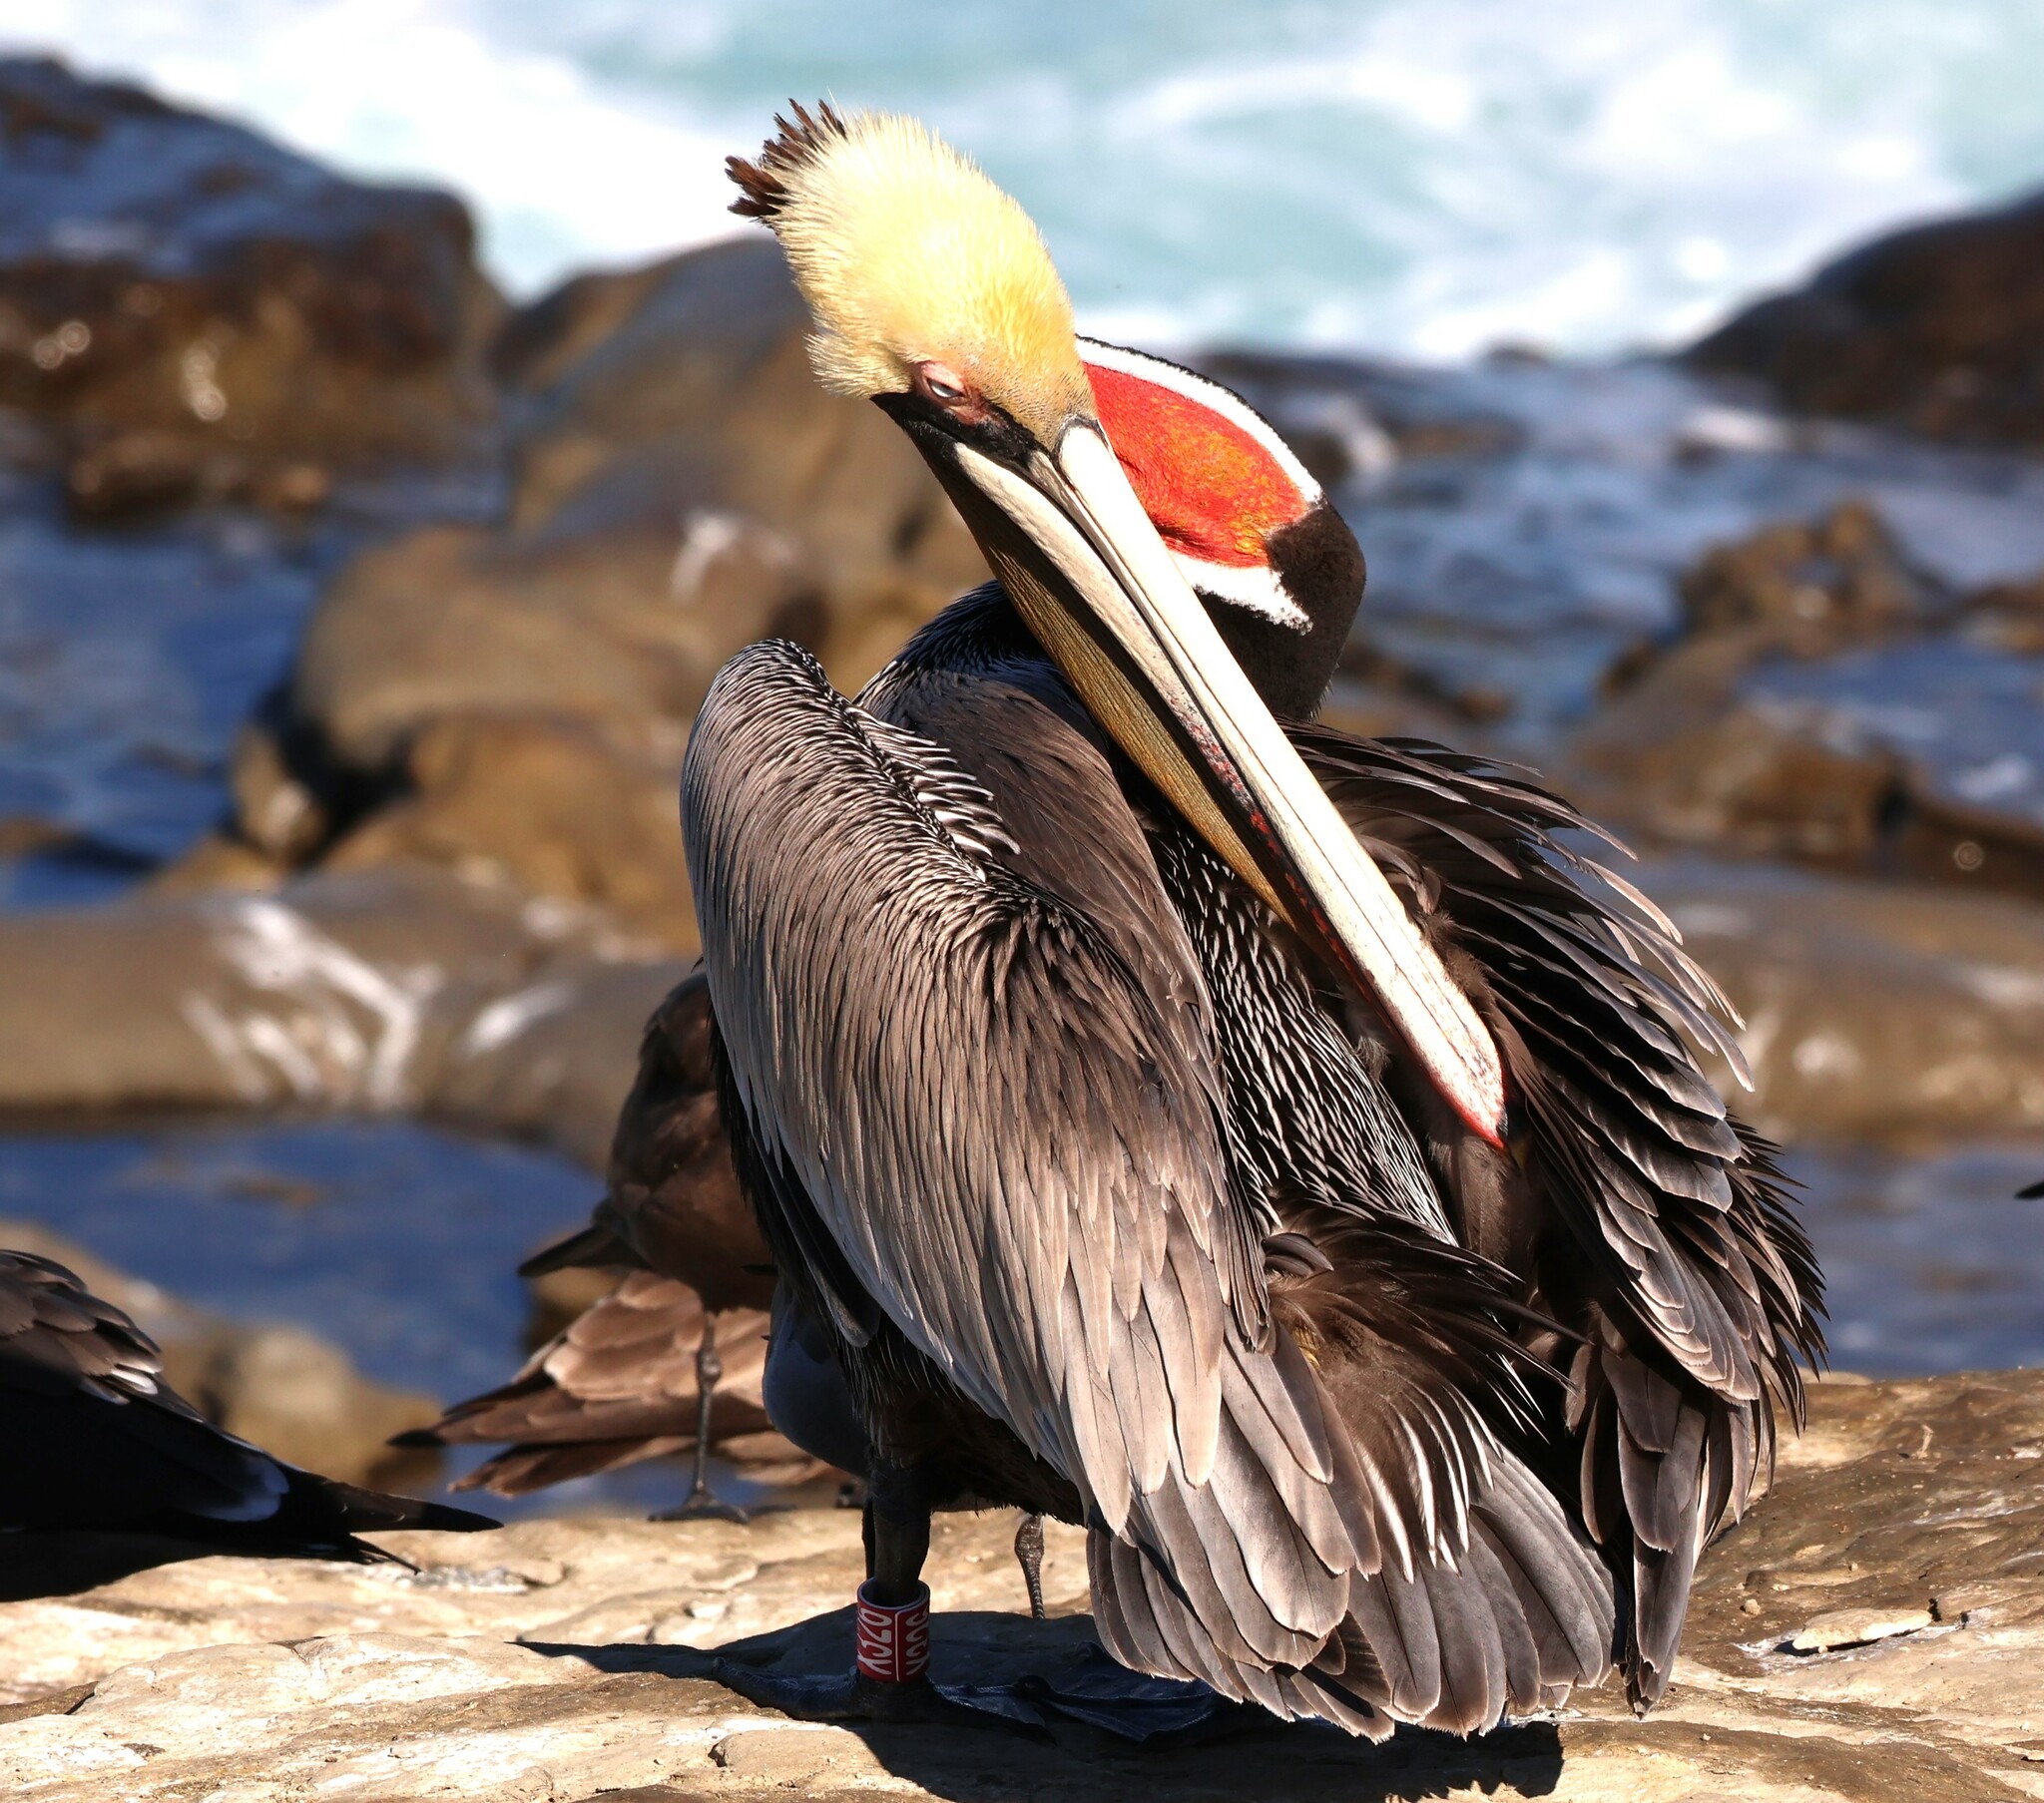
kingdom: Animalia
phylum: Chordata
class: Aves
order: Pelecaniformes
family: Pelecanidae
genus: Pelecanus
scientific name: Pelecanus occidentalis
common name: Brown pelican
